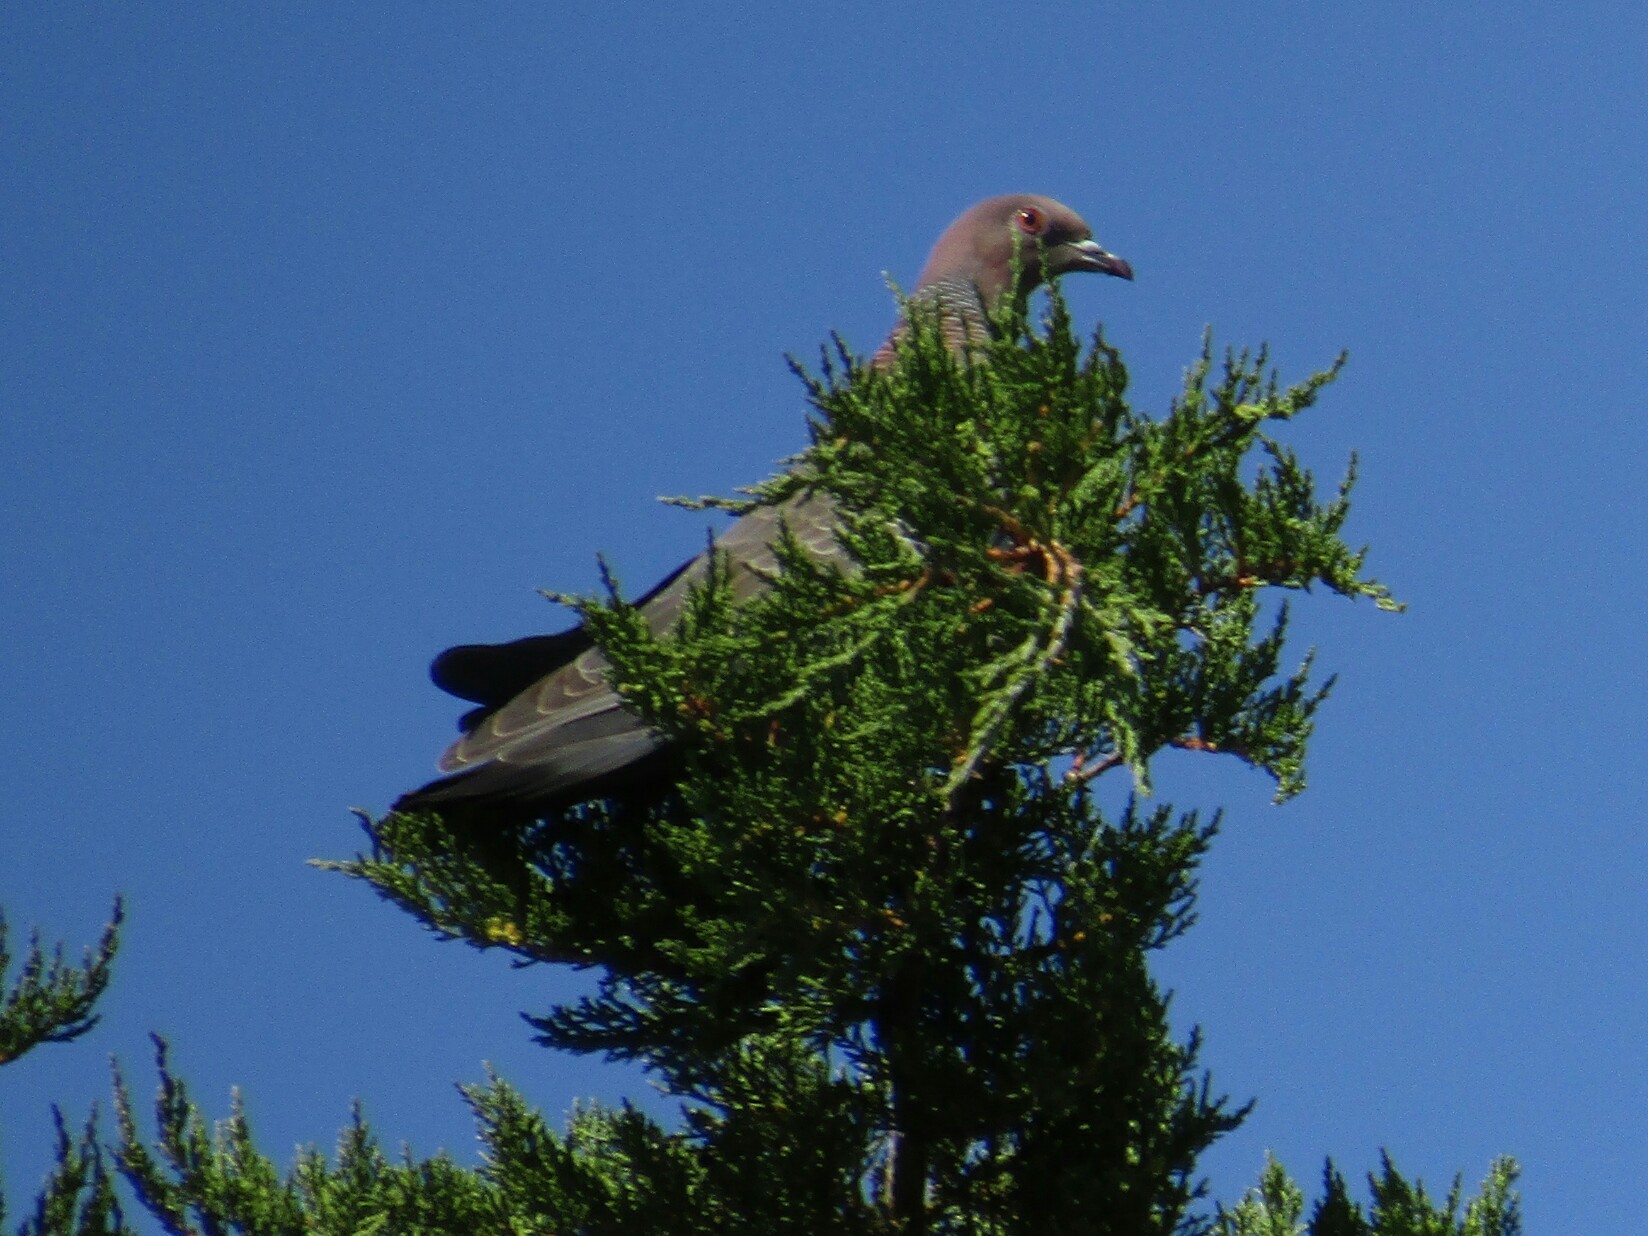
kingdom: Animalia
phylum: Chordata
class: Aves
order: Columbiformes
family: Columbidae
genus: Patagioenas
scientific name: Patagioenas picazuro
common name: Picazuro pigeon
